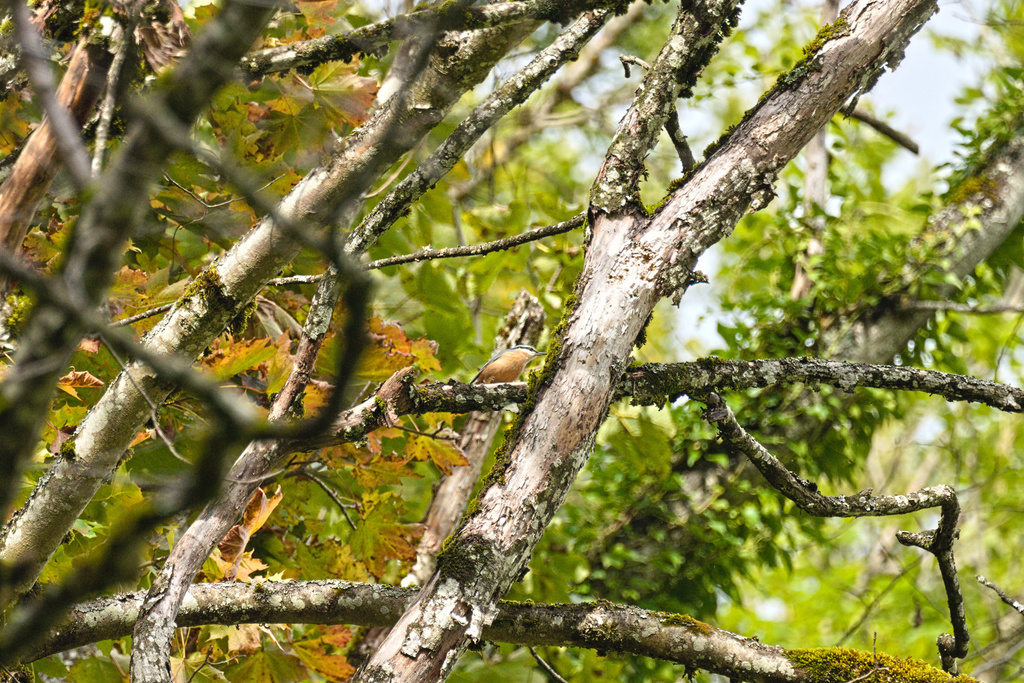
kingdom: Animalia
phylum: Chordata
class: Aves
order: Passeriformes
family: Sittidae
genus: Sitta
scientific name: Sitta europaea
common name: Eurasian nuthatch
